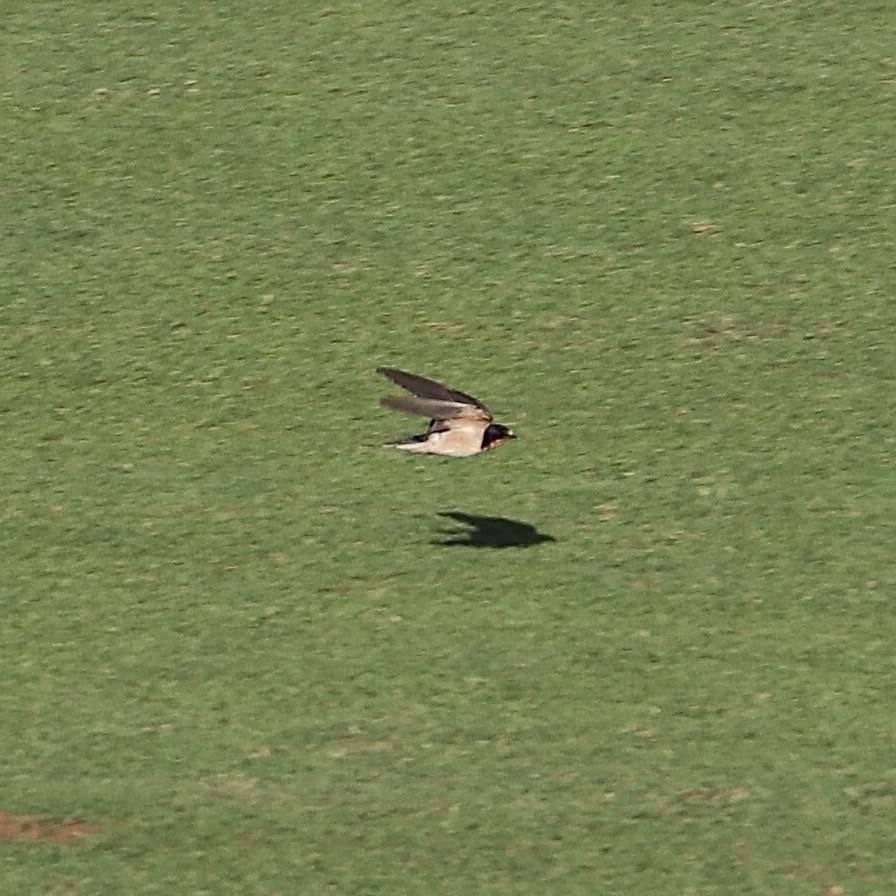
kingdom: Animalia
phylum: Chordata
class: Aves
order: Passeriformes
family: Hirundinidae
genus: Hirundo
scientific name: Hirundo rustica
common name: Barn swallow
